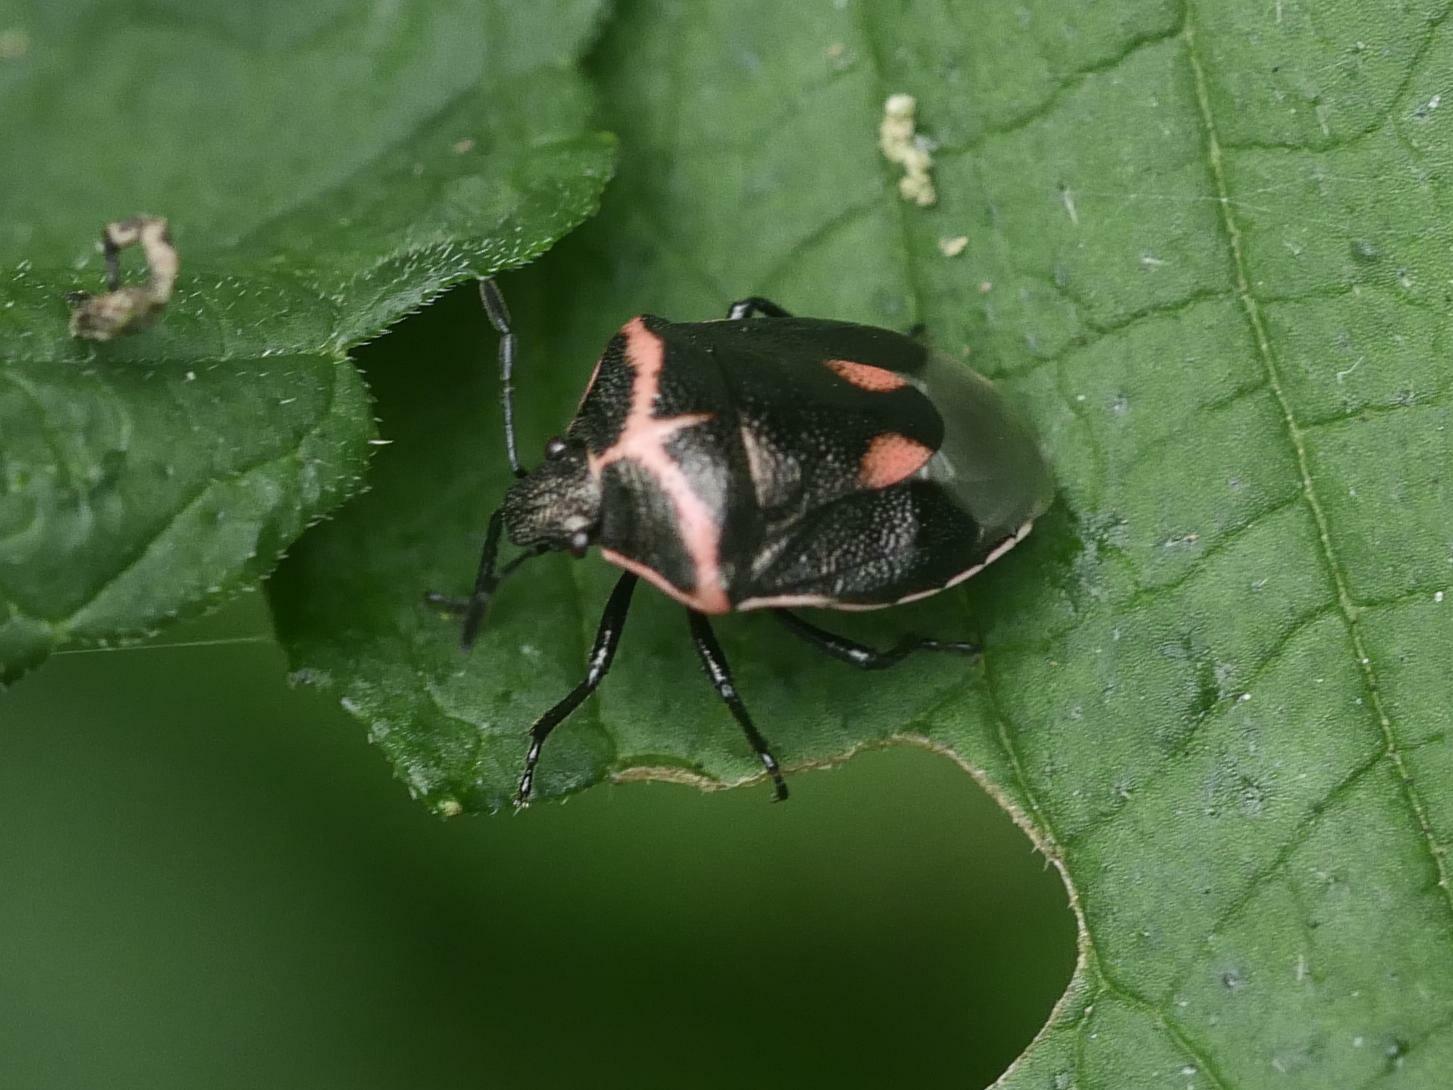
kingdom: Animalia
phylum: Arthropoda
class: Insecta
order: Hemiptera
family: Pentatomidae
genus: Cosmopepla
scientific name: Cosmopepla lintneriana
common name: Twice-stabbed stink bug
